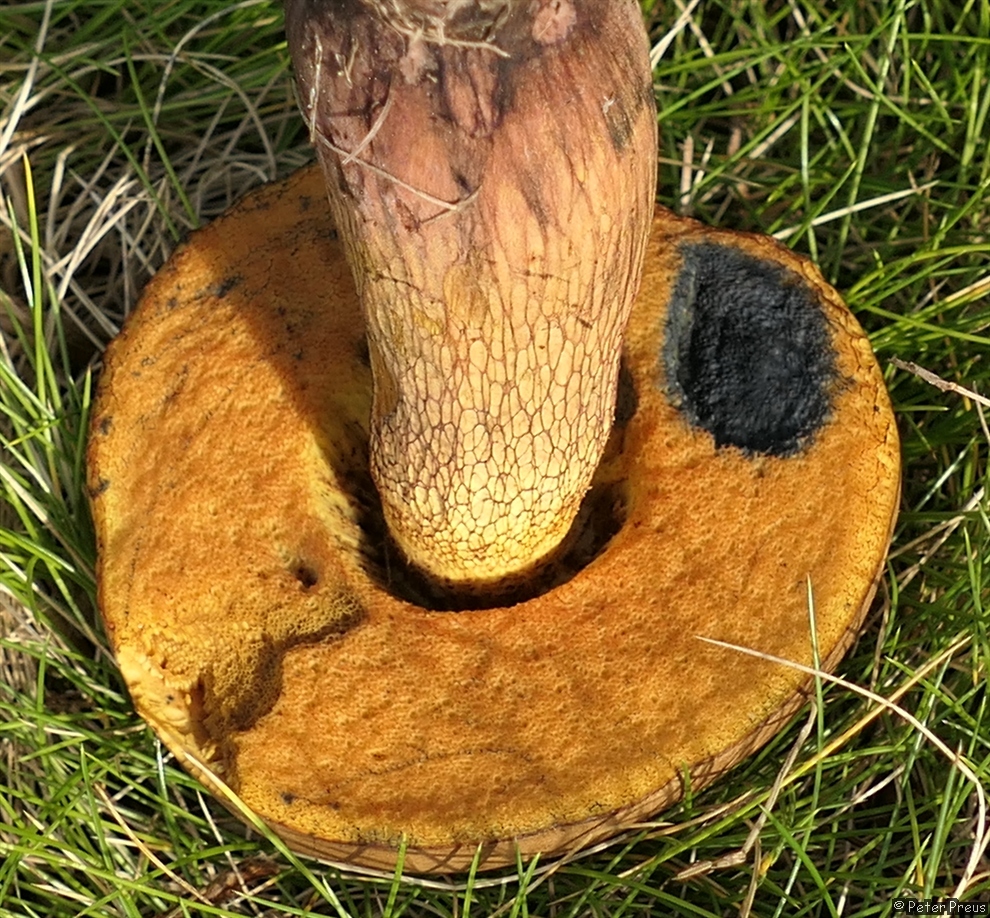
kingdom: Fungi
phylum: Basidiomycota
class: Agaricomycetes
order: Boletales
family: Boletaceae
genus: Suillellus
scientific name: Suillellus luridus
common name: Lurid bolete
